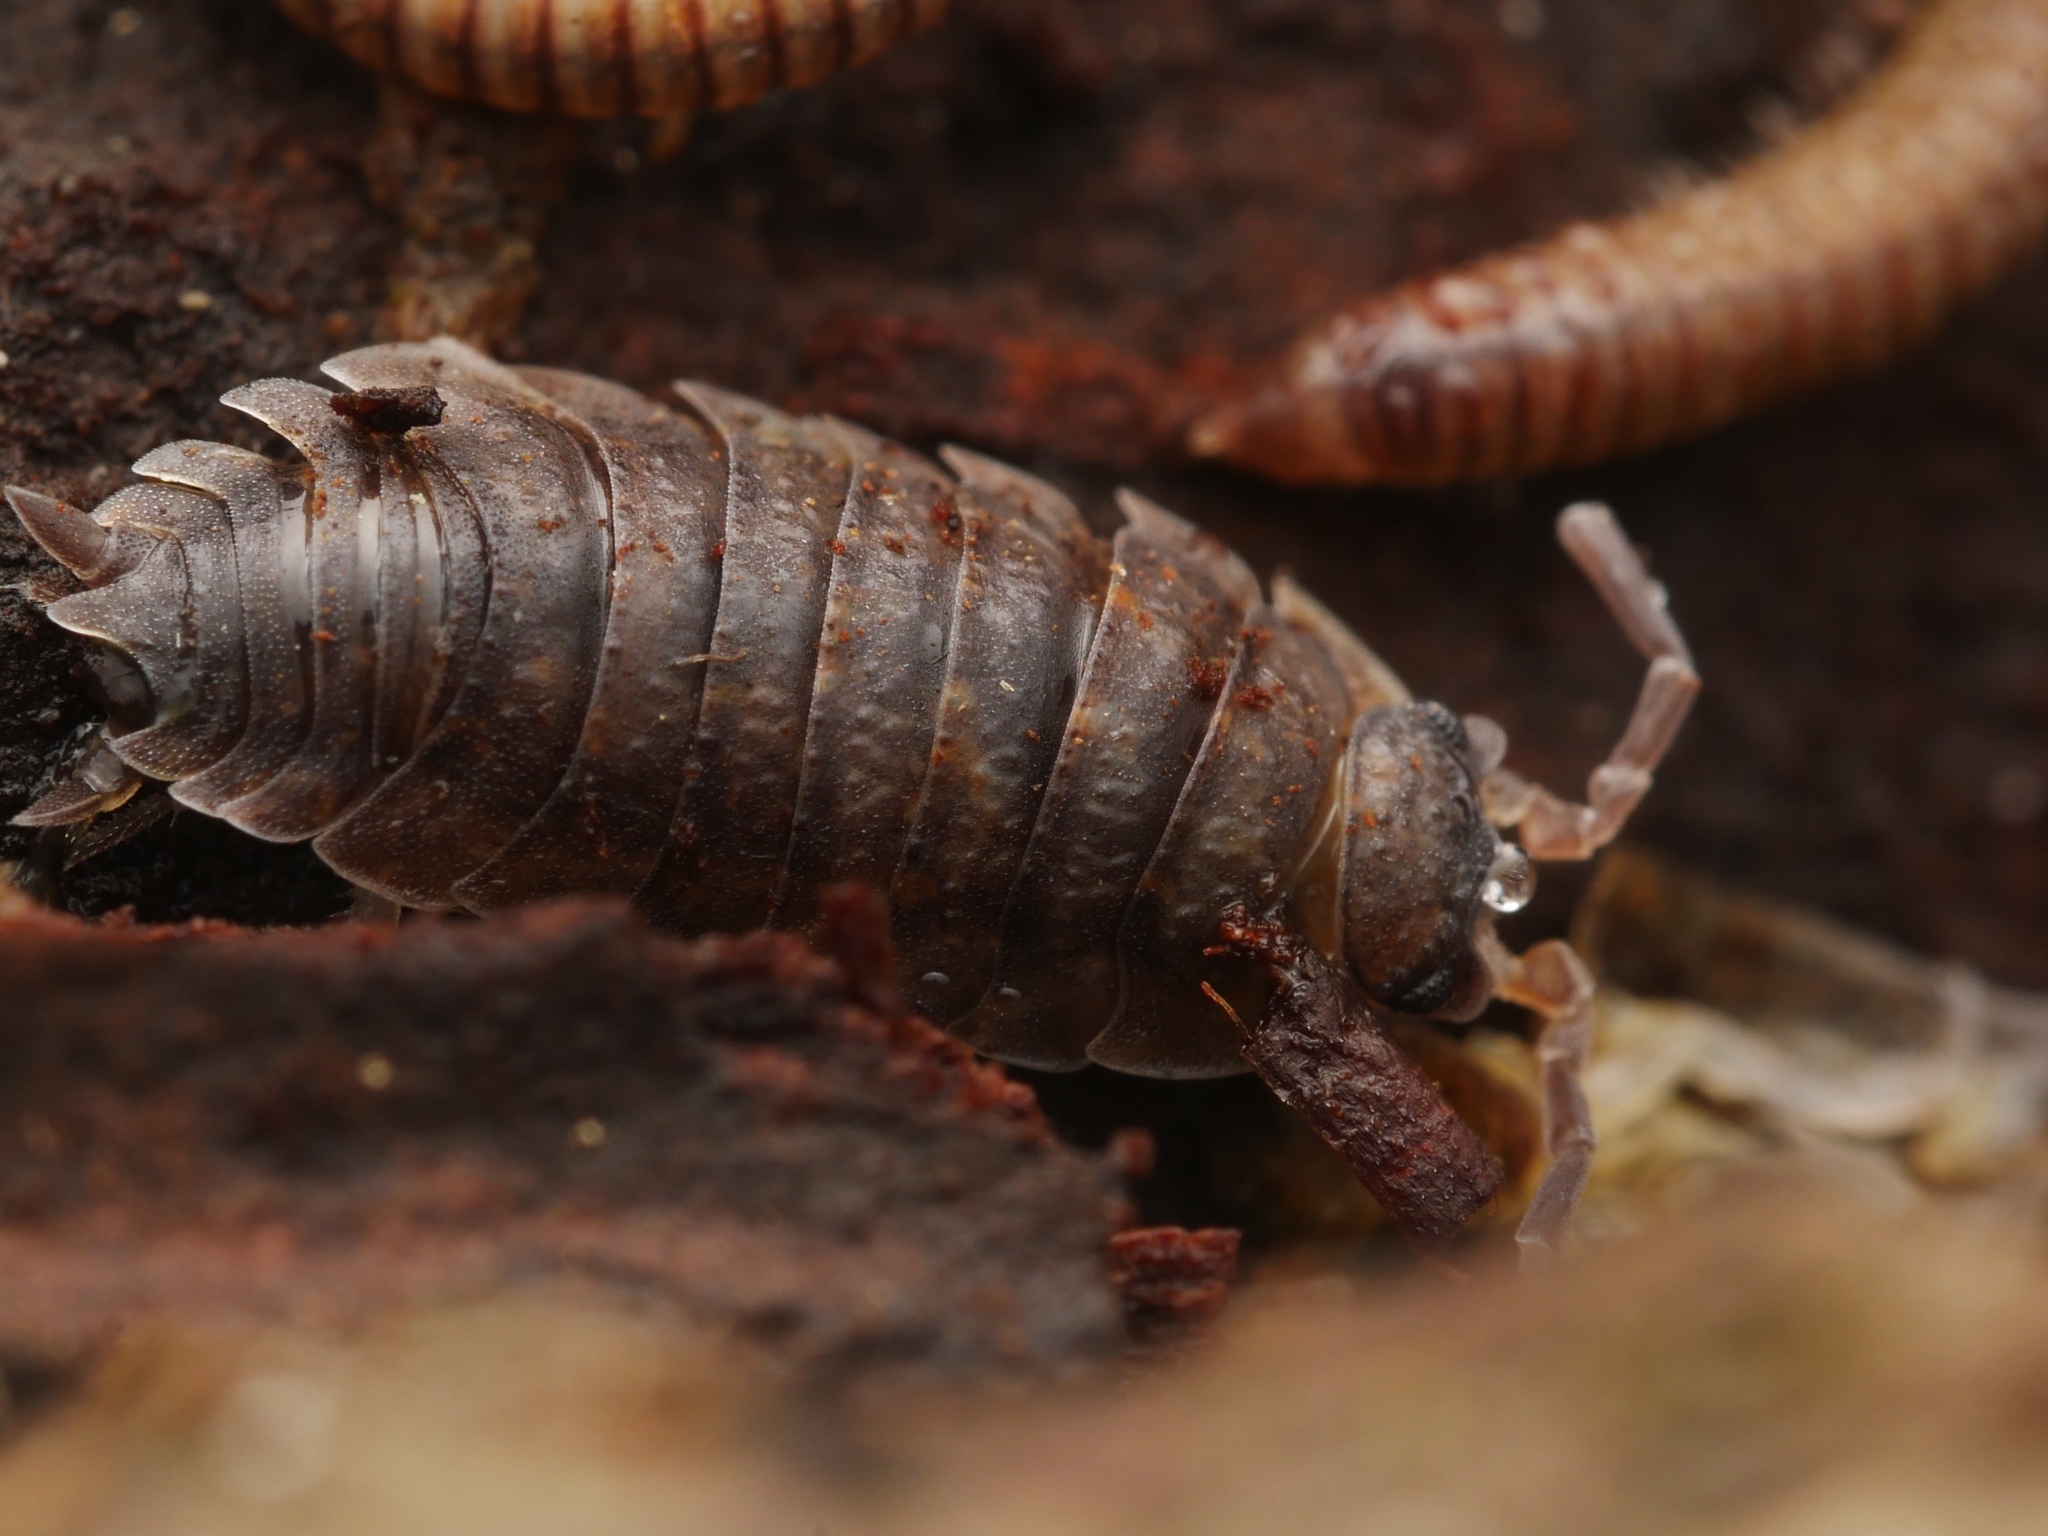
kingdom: Animalia
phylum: Arthropoda
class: Malacostraca
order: Isopoda
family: Porcellionidae
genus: Porcellio
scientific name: Porcellio scaber
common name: Common rough woodlouse
